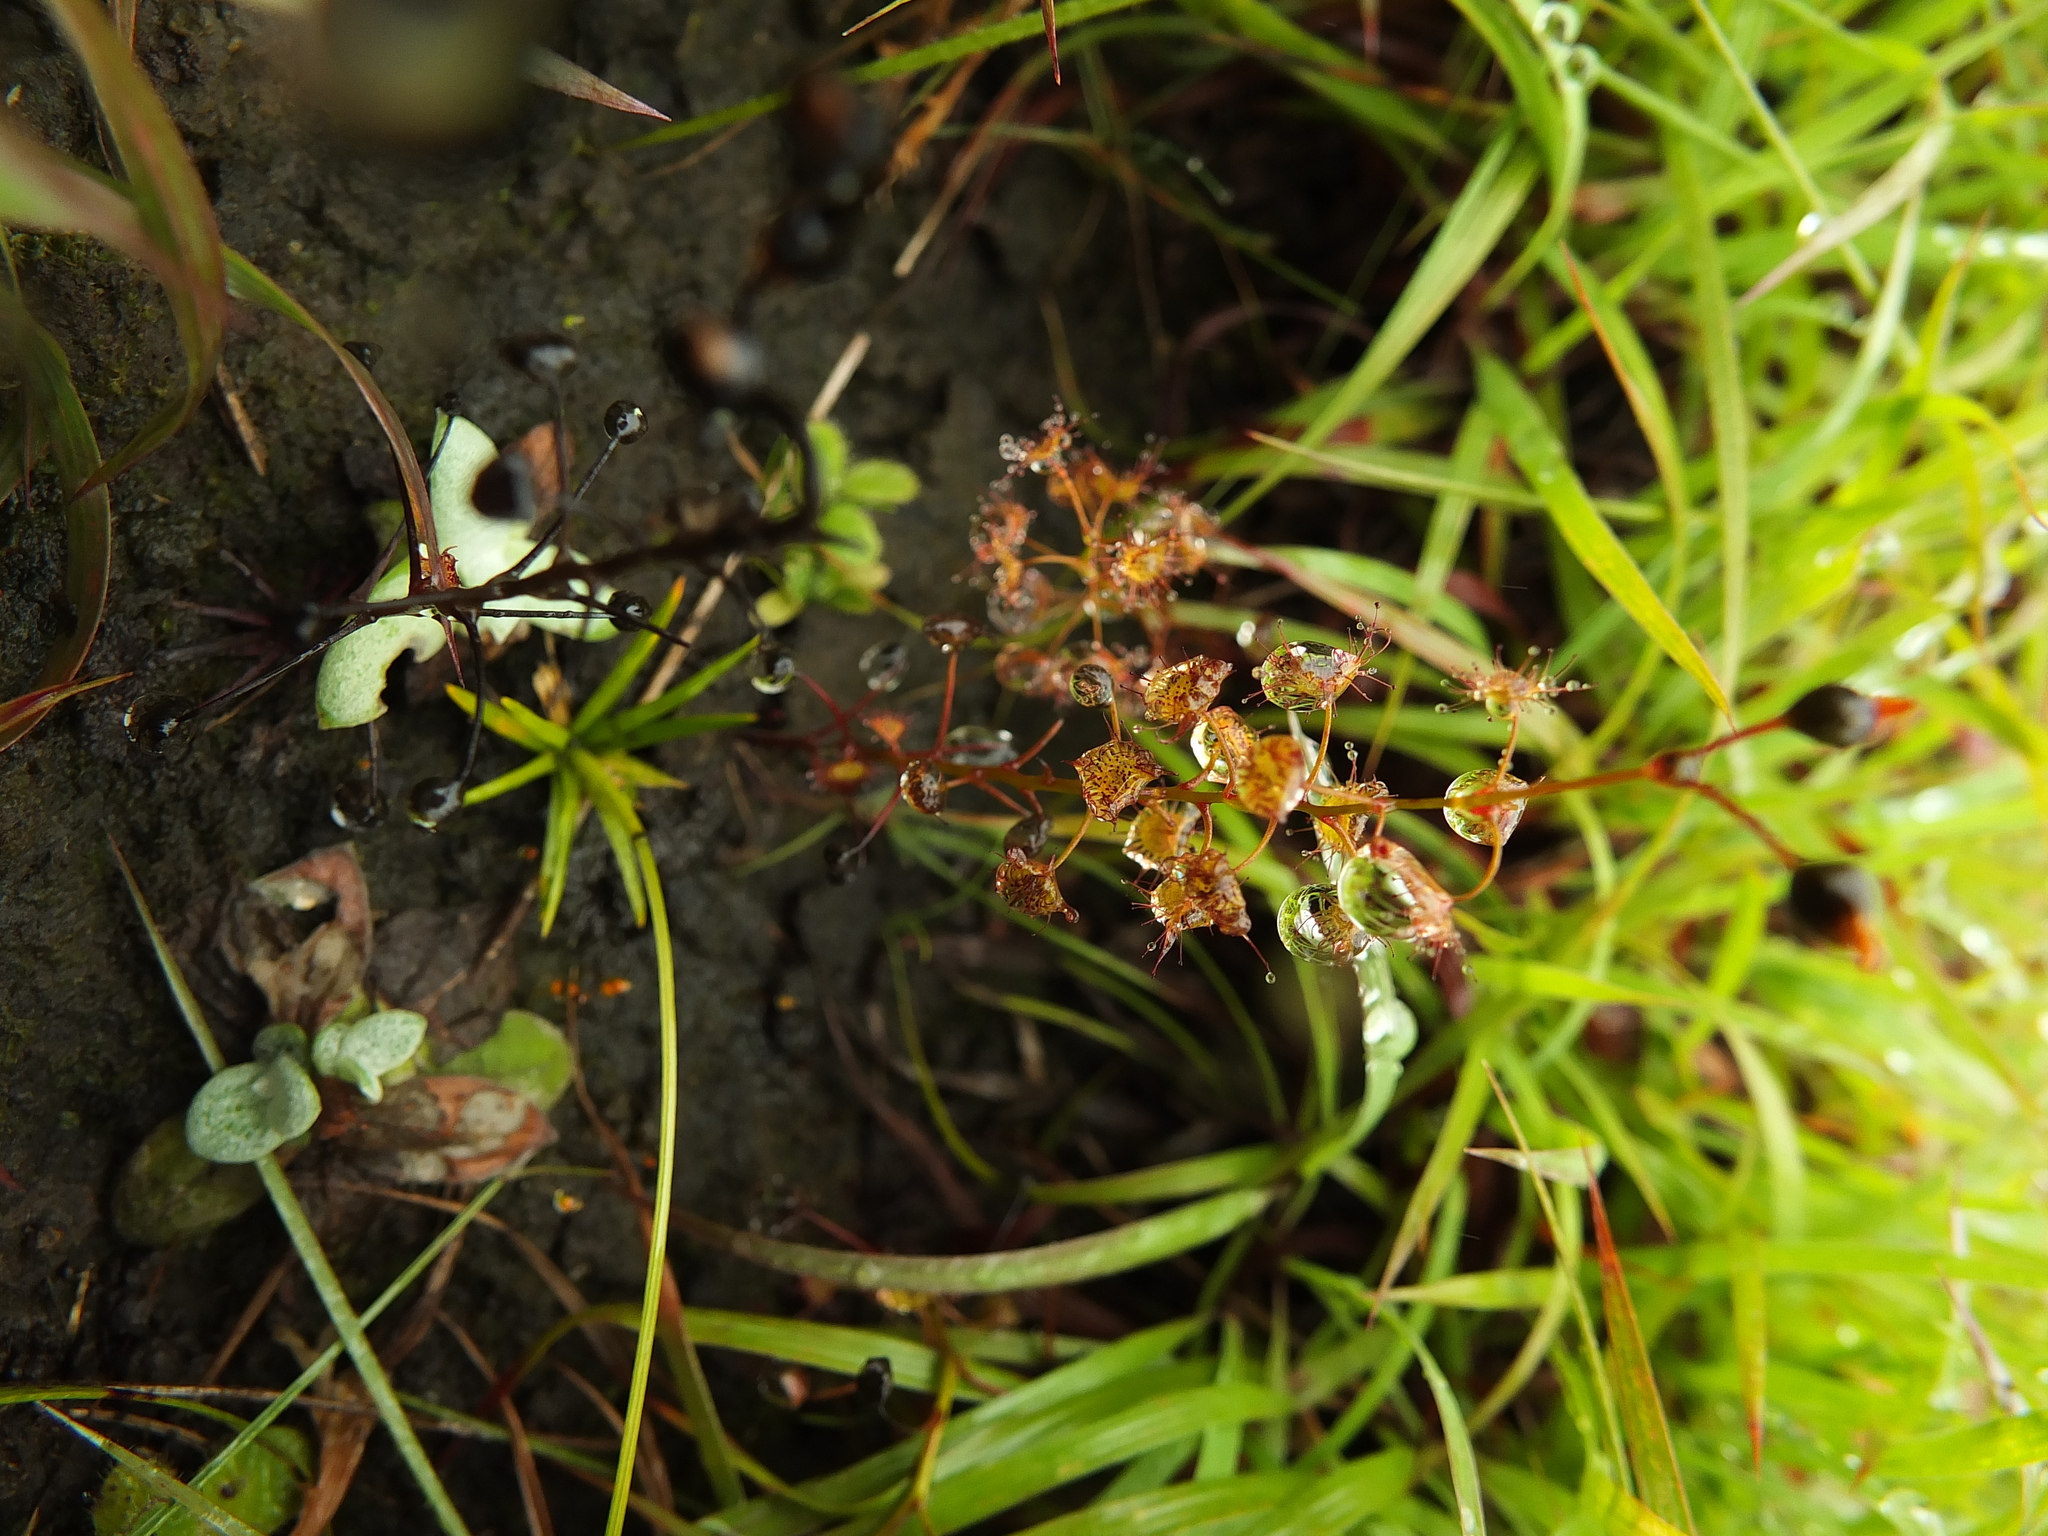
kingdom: Plantae
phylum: Tracheophyta
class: Magnoliopsida
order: Caryophyllales
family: Droseraceae
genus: Drosera
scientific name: Drosera peltata
